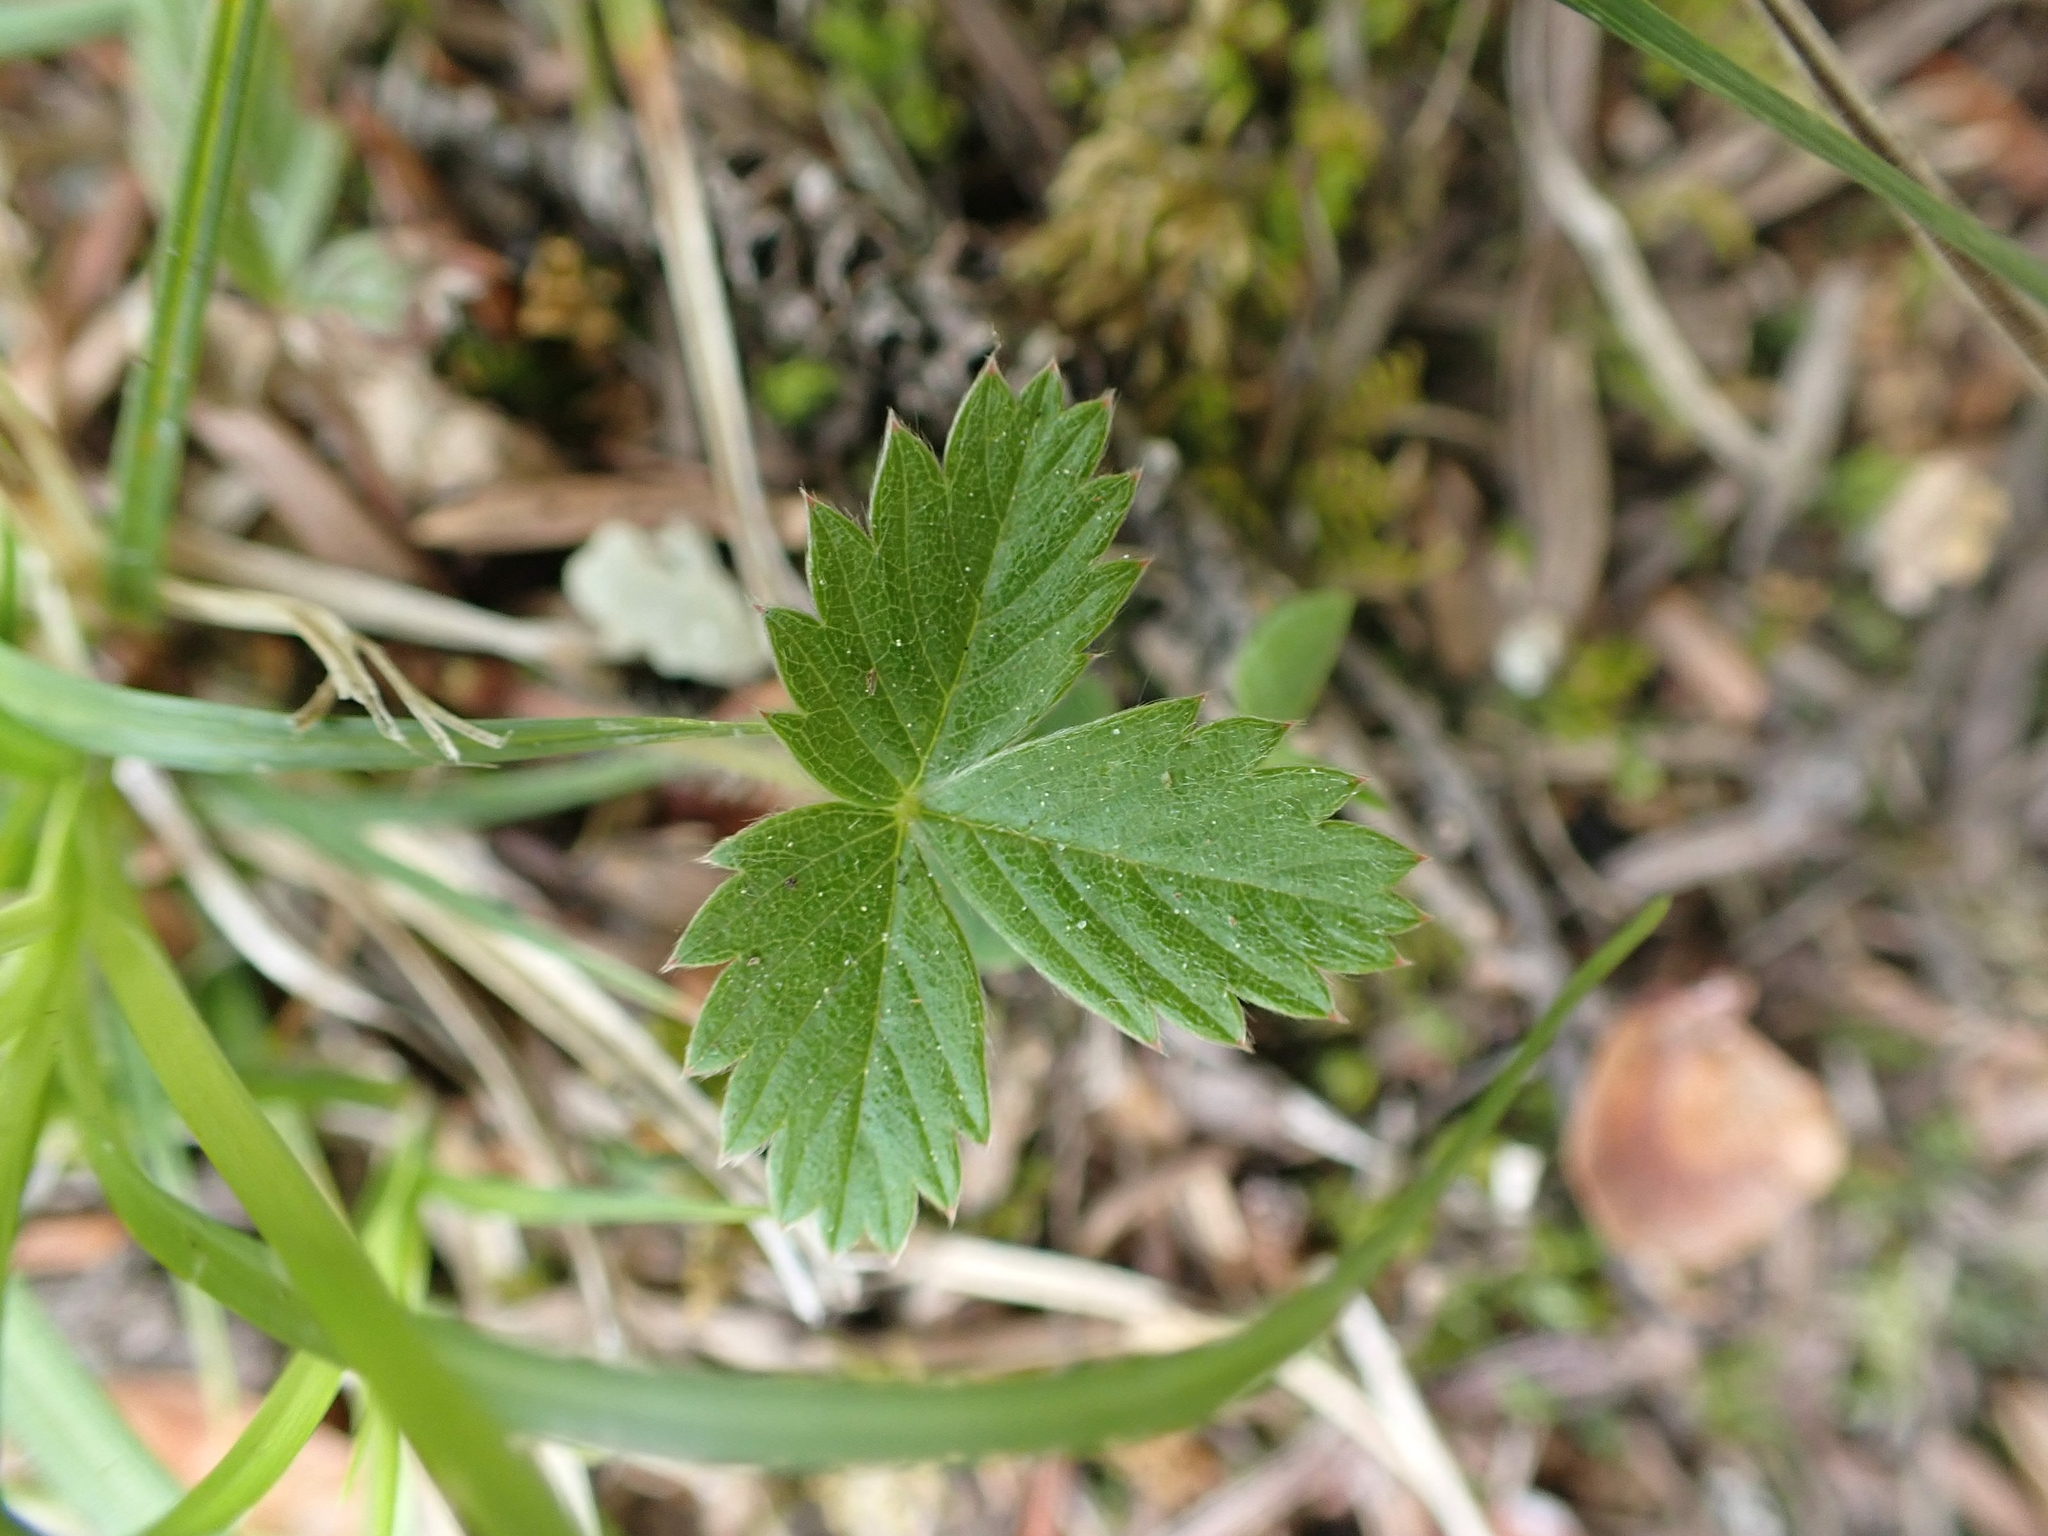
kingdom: Plantae
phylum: Tracheophyta
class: Magnoliopsida
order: Rosales
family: Rosaceae
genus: Fragaria
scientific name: Fragaria virginiana
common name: Thickleaved wild strawberry
